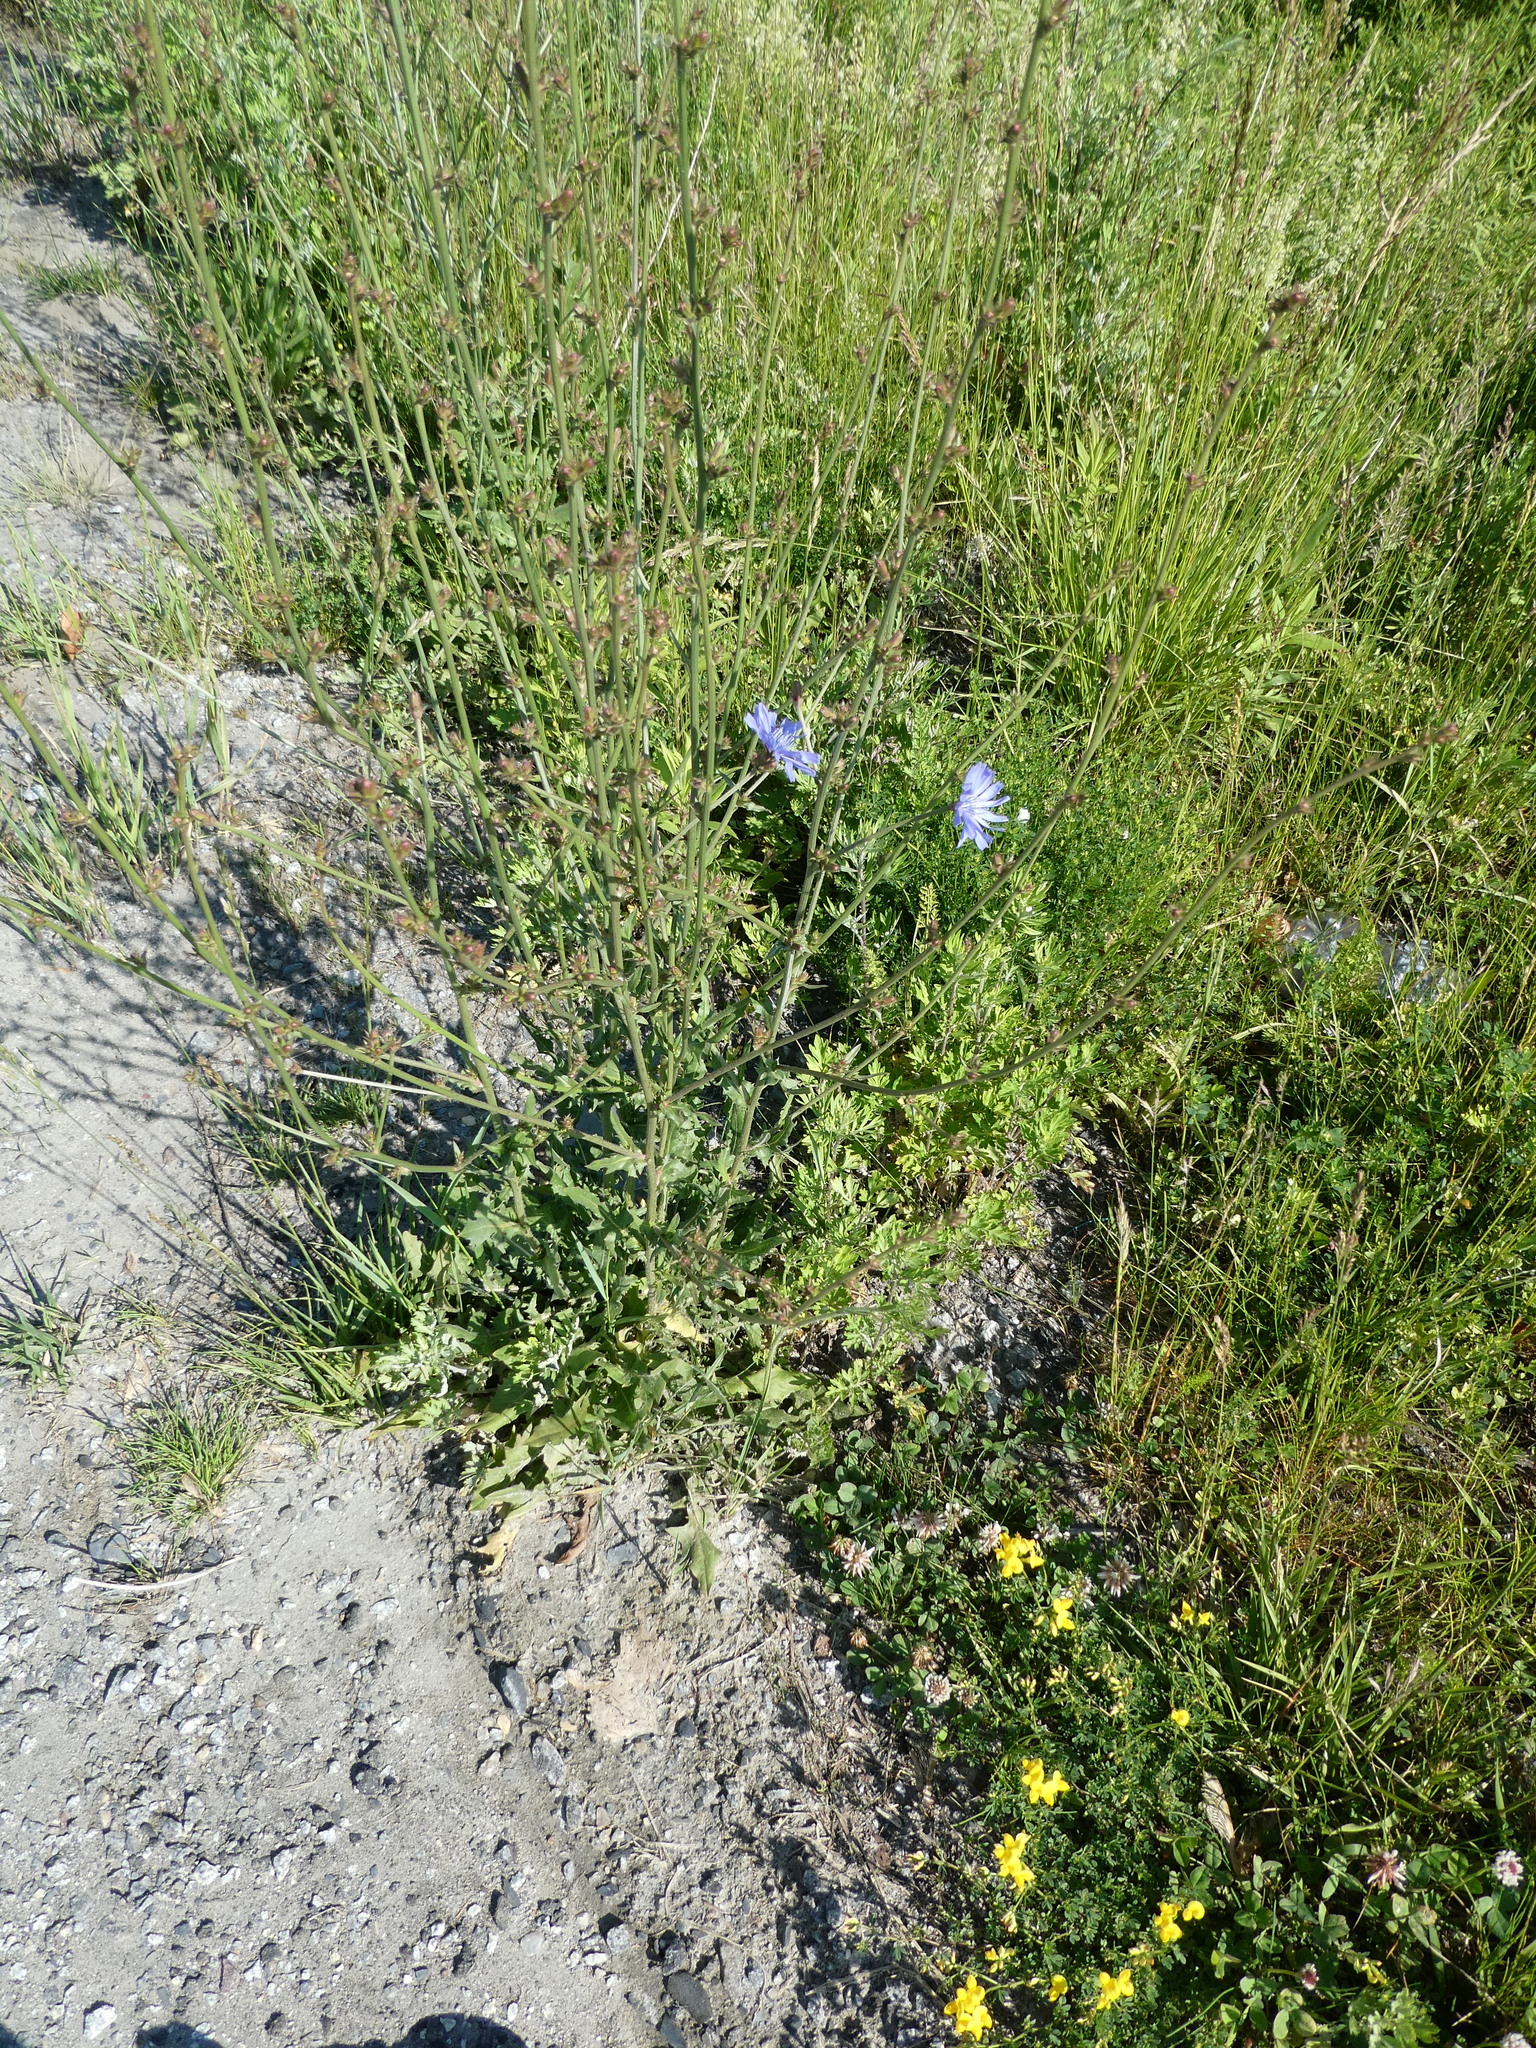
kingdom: Plantae
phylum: Tracheophyta
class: Magnoliopsida
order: Asterales
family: Asteraceae
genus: Cichorium
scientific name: Cichorium intybus
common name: Chicory
